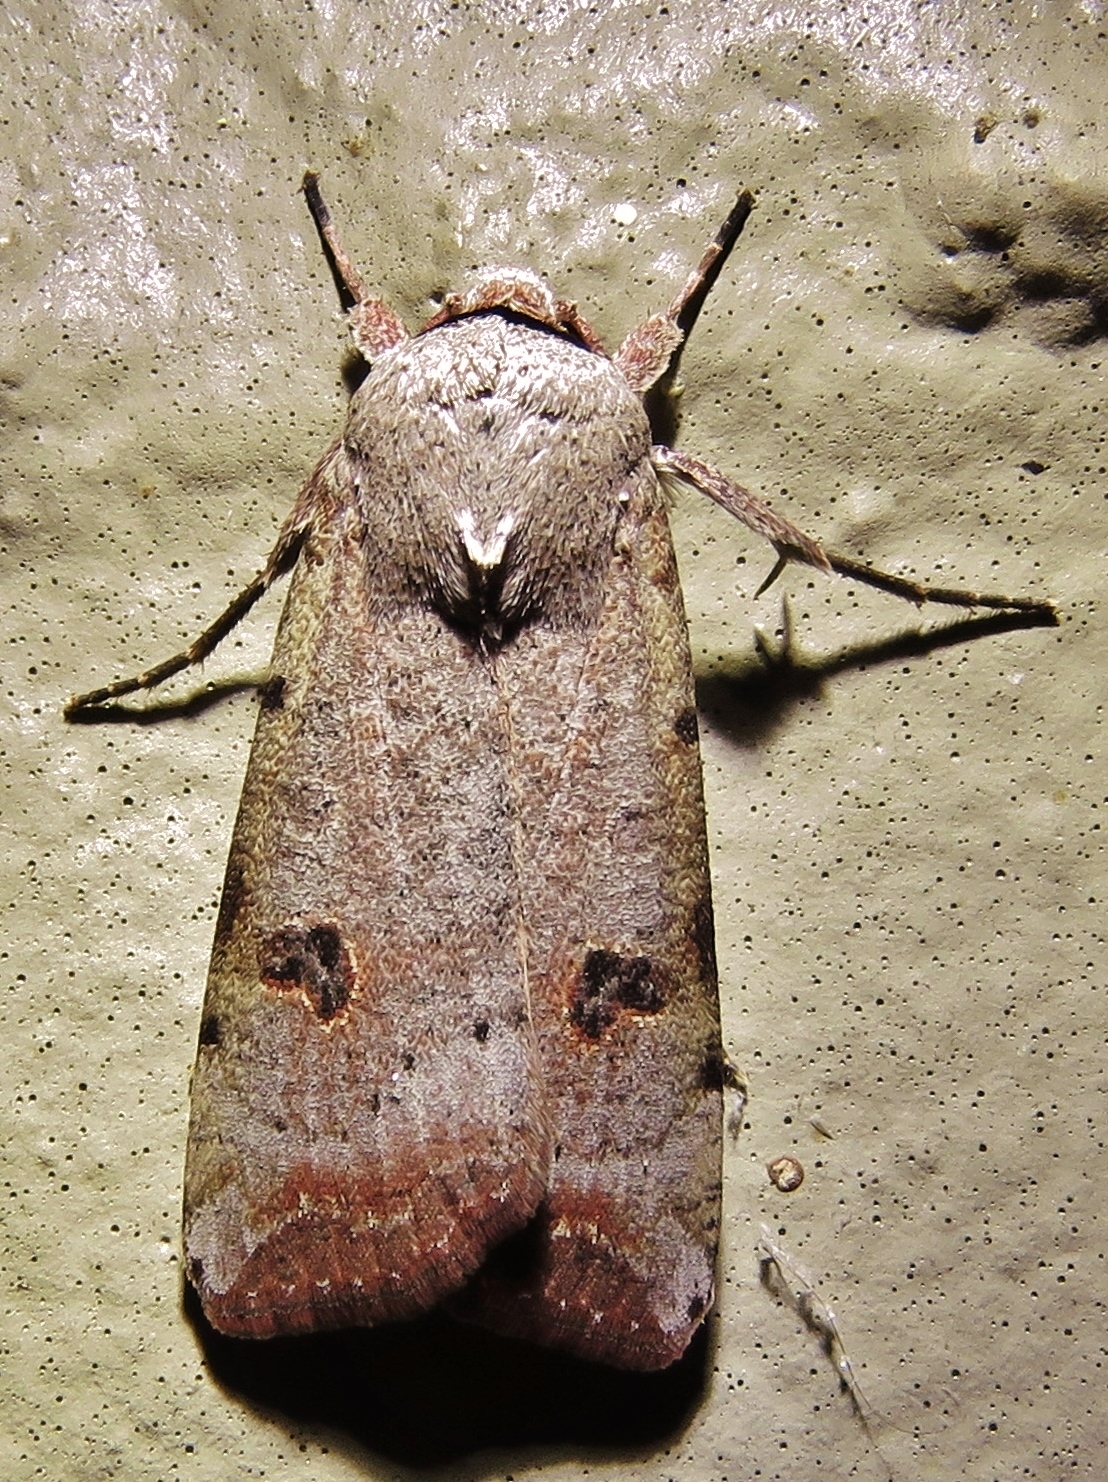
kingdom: Animalia
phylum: Arthropoda
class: Insecta
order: Lepidoptera
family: Noctuidae
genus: Anicla
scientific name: Anicla infecta
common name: Green cutworm
